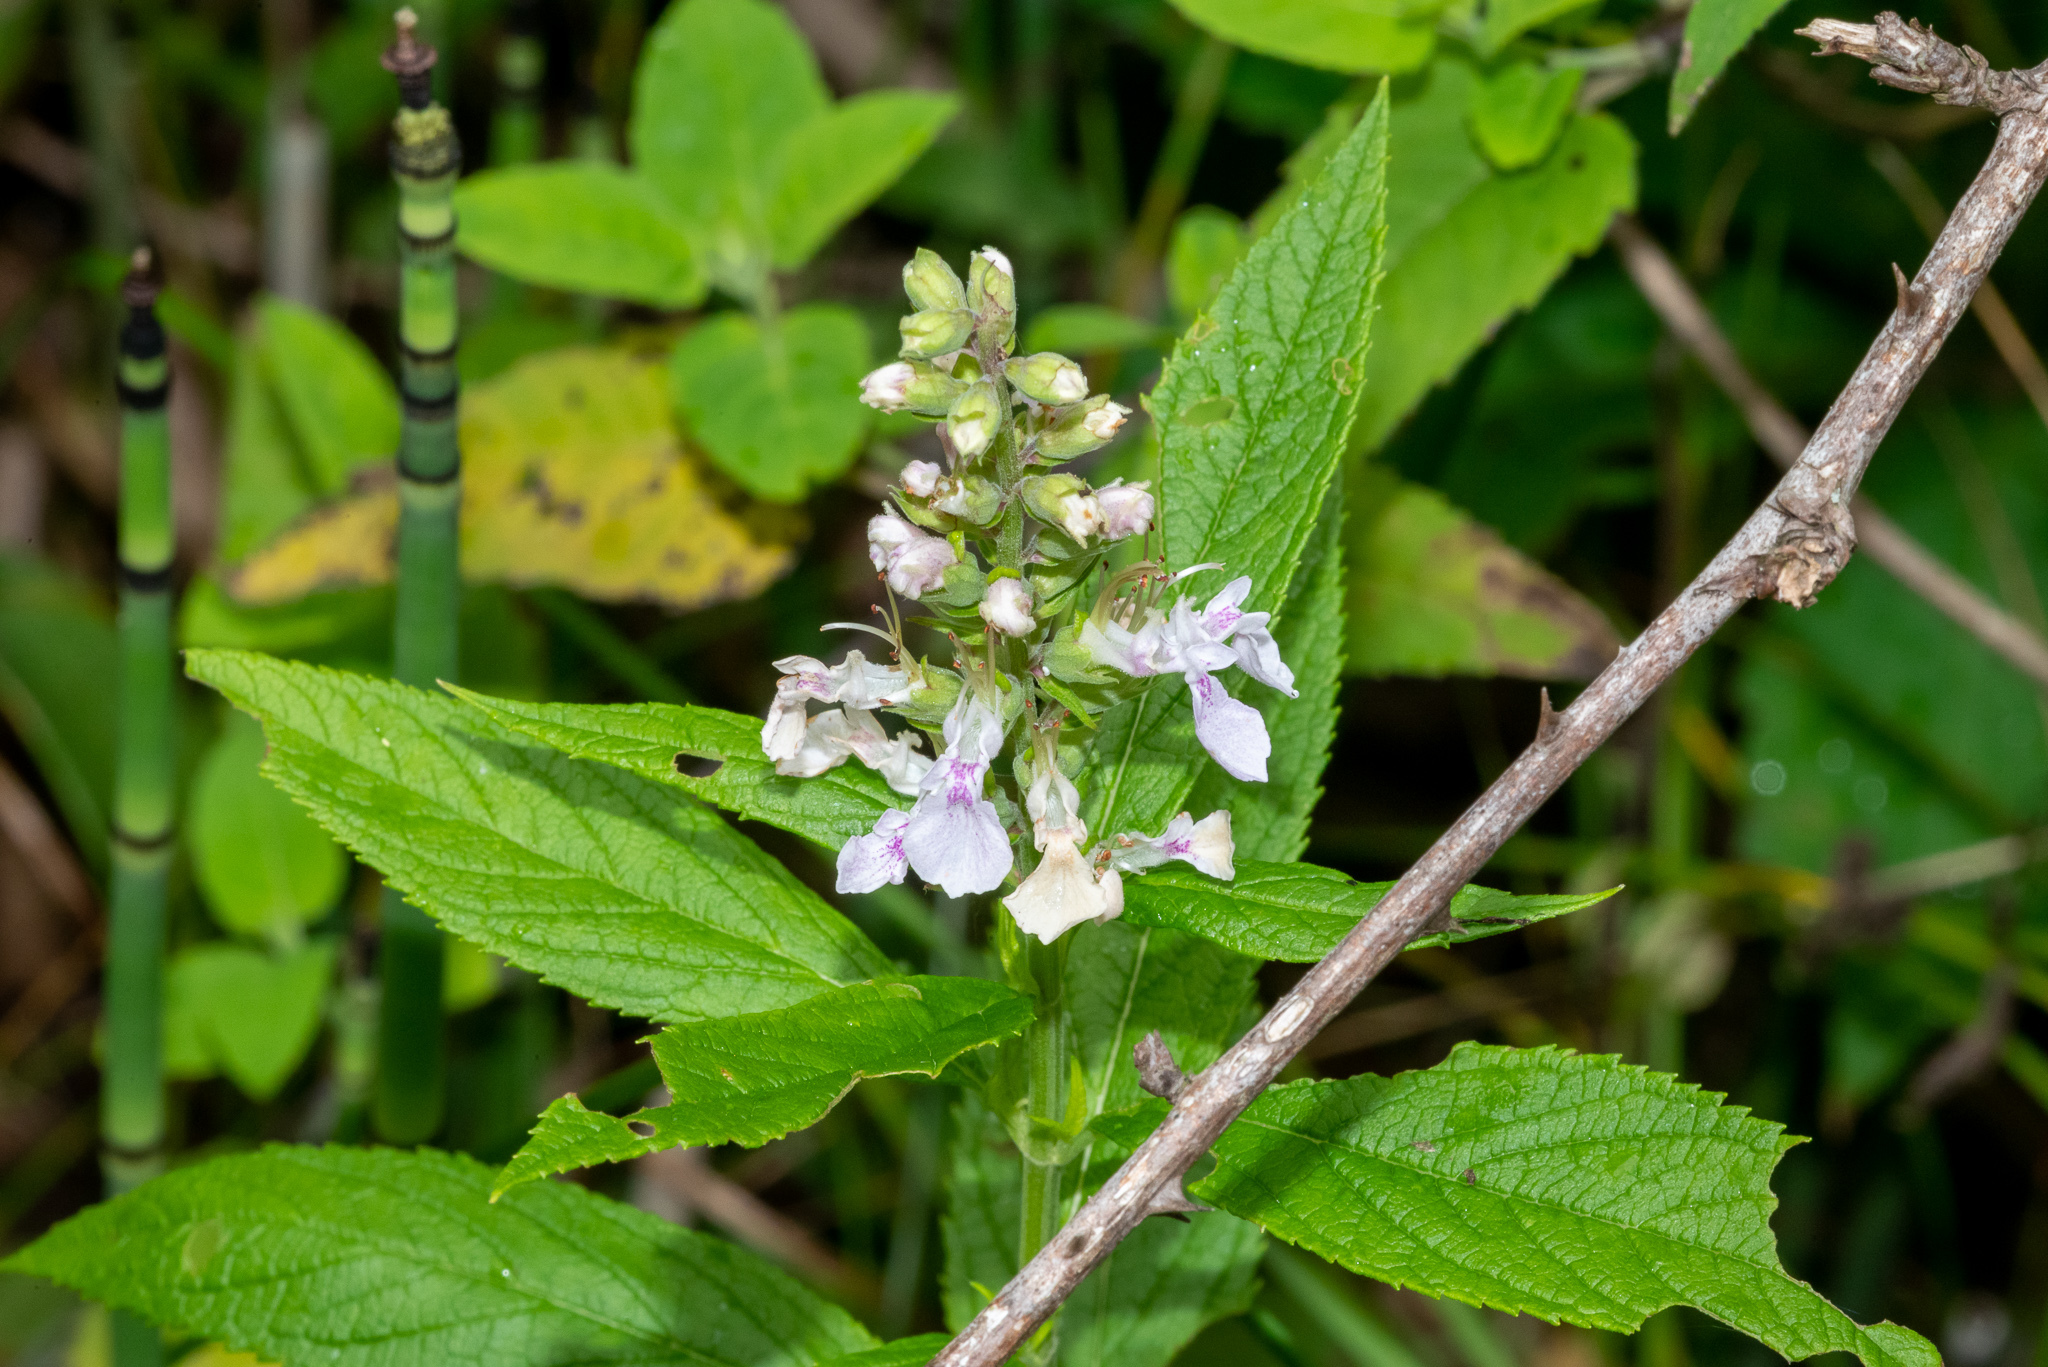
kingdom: Plantae
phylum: Tracheophyta
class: Magnoliopsida
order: Lamiales
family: Lamiaceae
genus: Teucrium
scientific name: Teucrium canadense
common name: American germander
